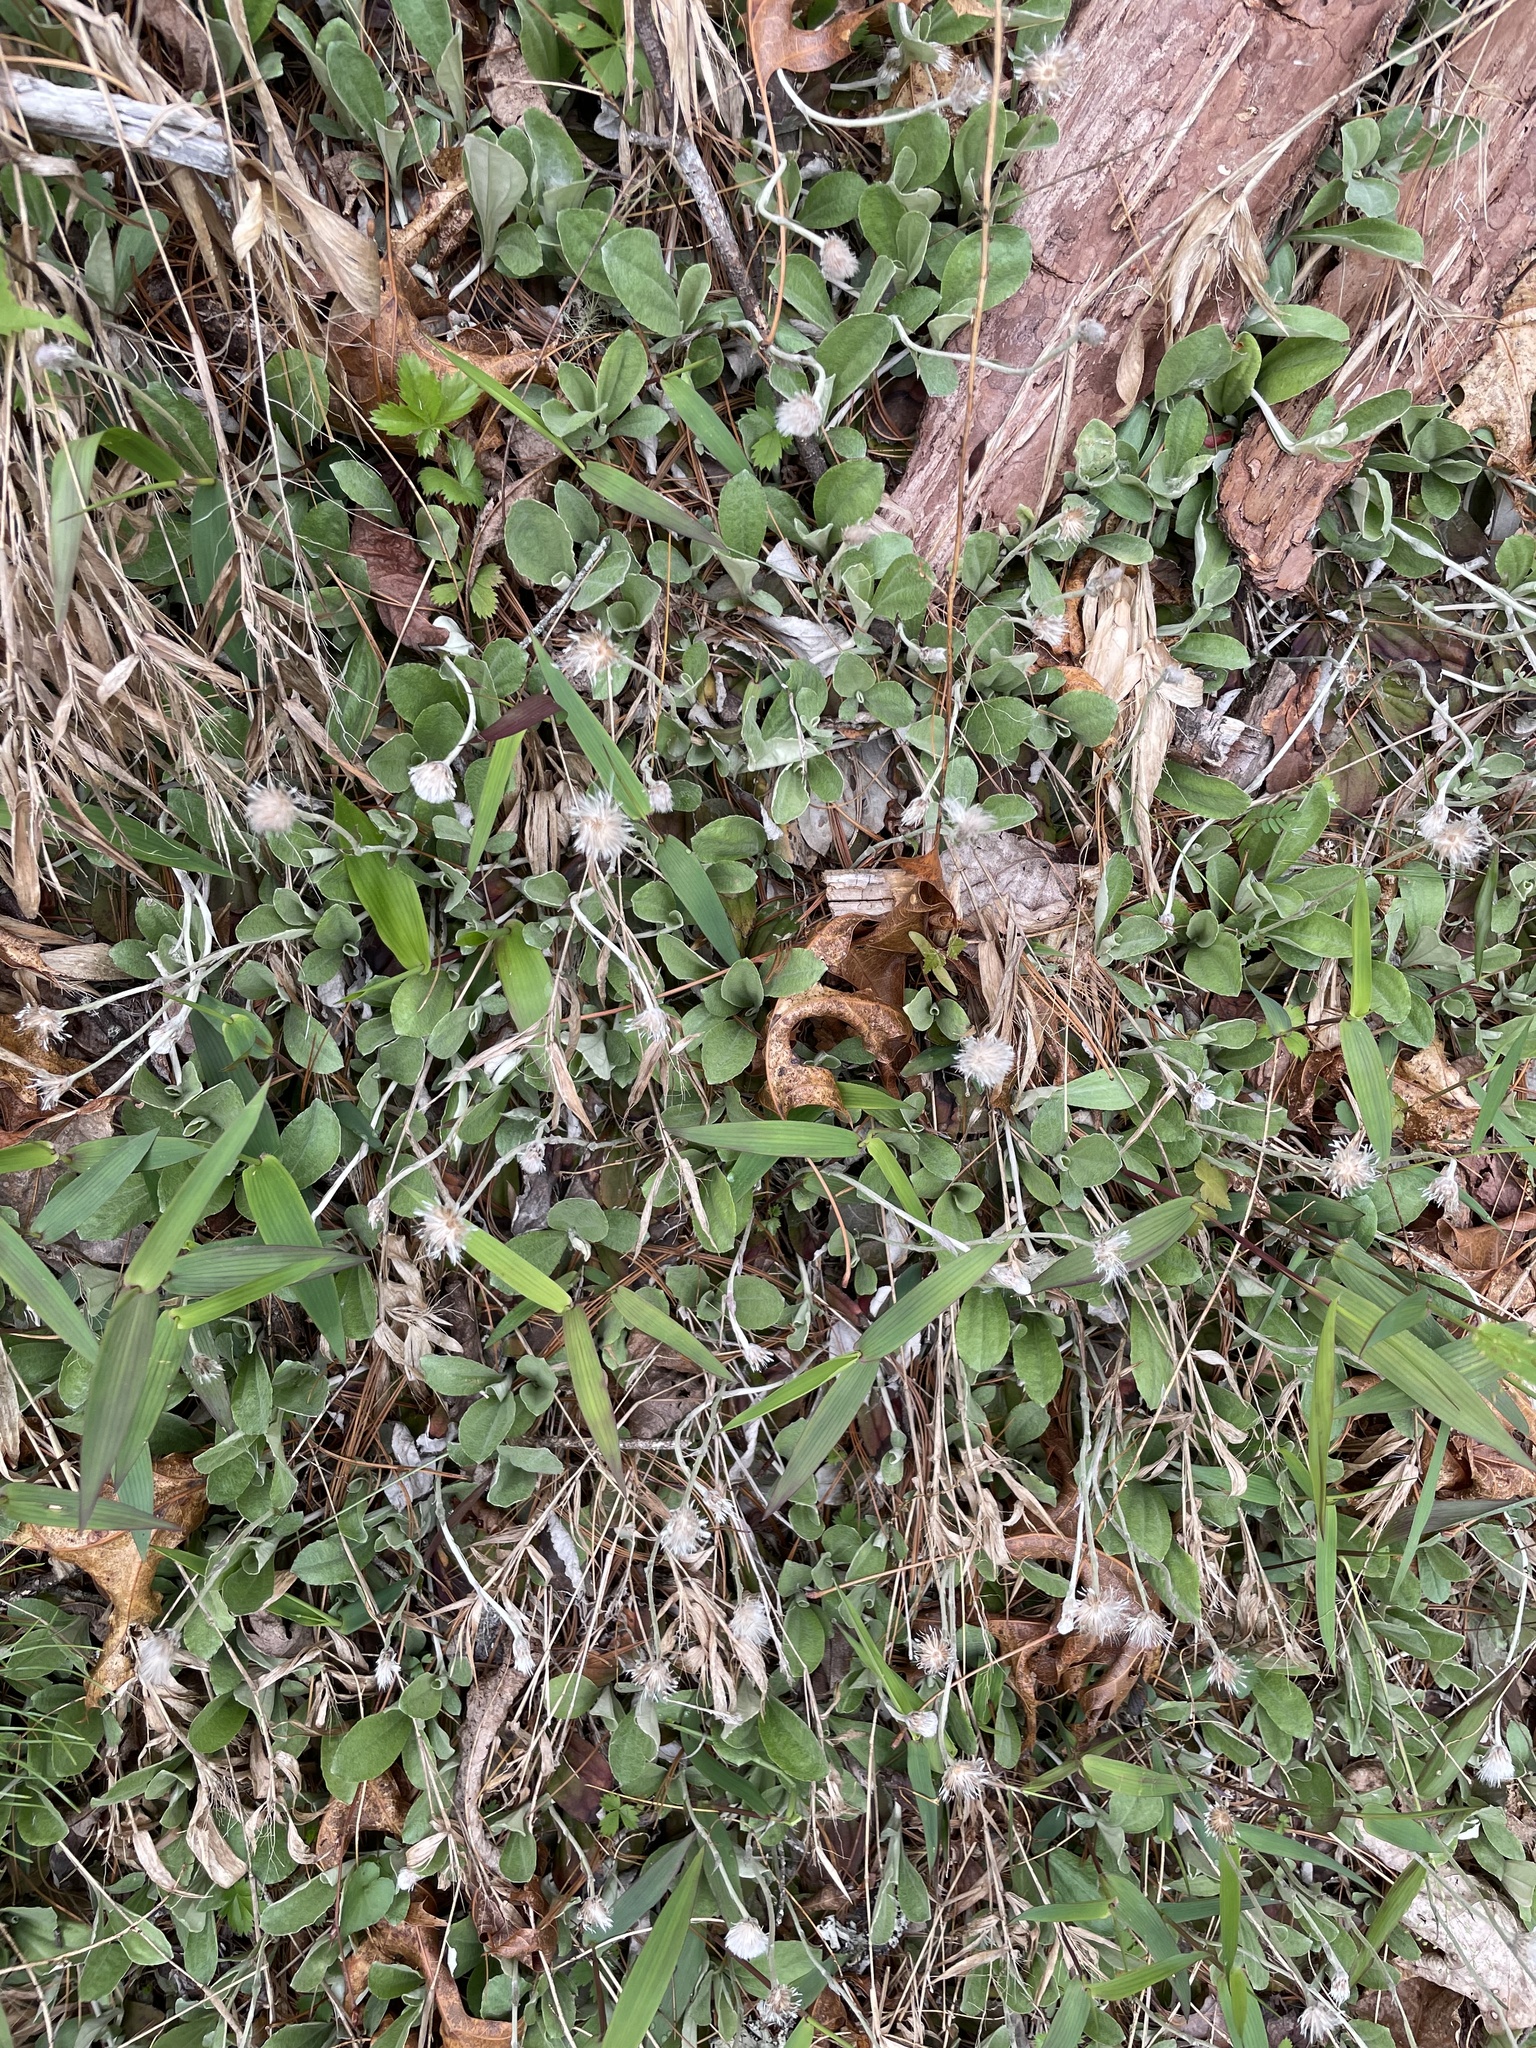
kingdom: Plantae
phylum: Tracheophyta
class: Magnoliopsida
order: Asterales
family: Asteraceae
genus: Antennaria
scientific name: Antennaria solitaria
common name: Single-head pussytoes
